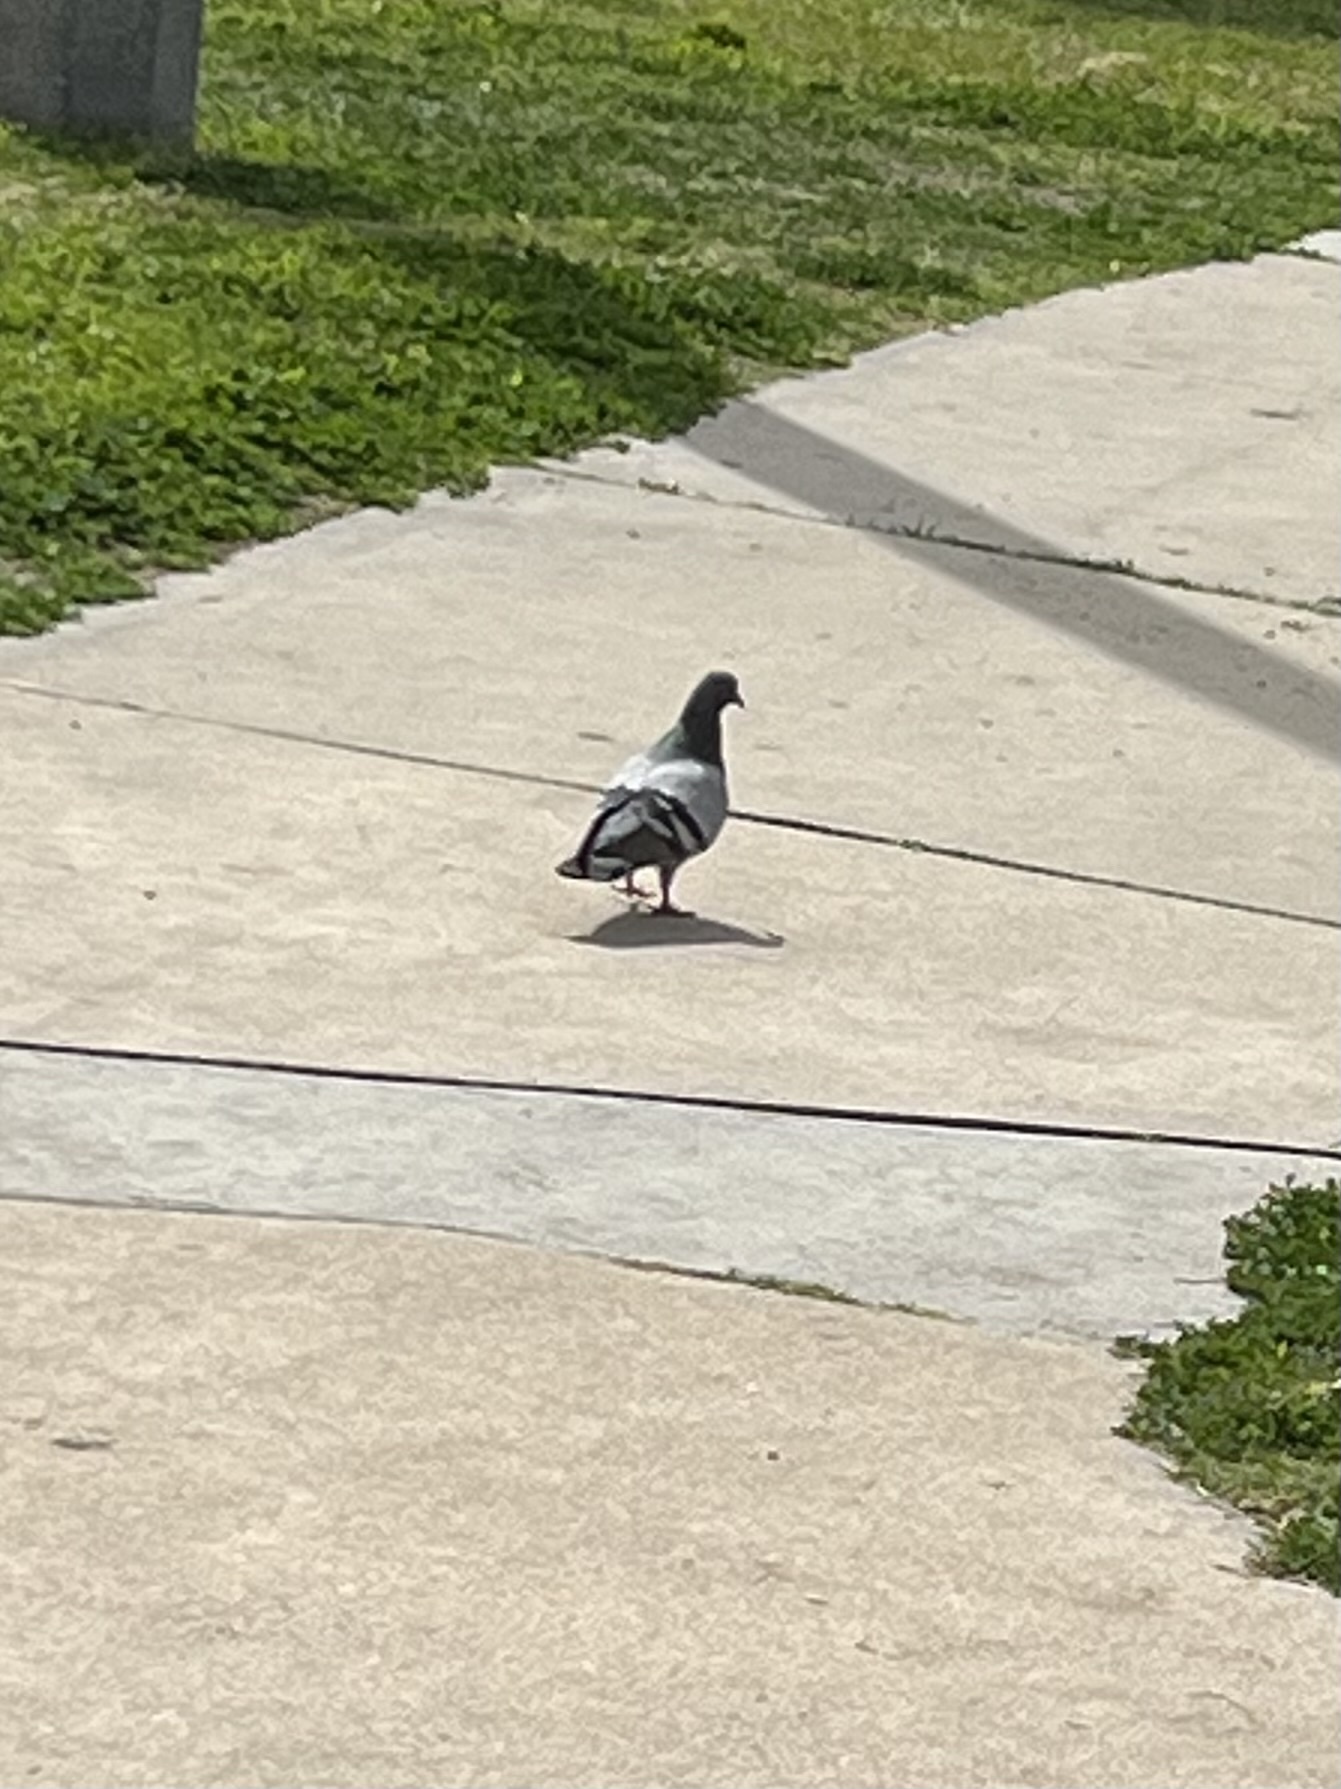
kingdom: Animalia
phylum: Chordata
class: Aves
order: Columbiformes
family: Columbidae
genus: Columba
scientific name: Columba livia
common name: Rock pigeon
